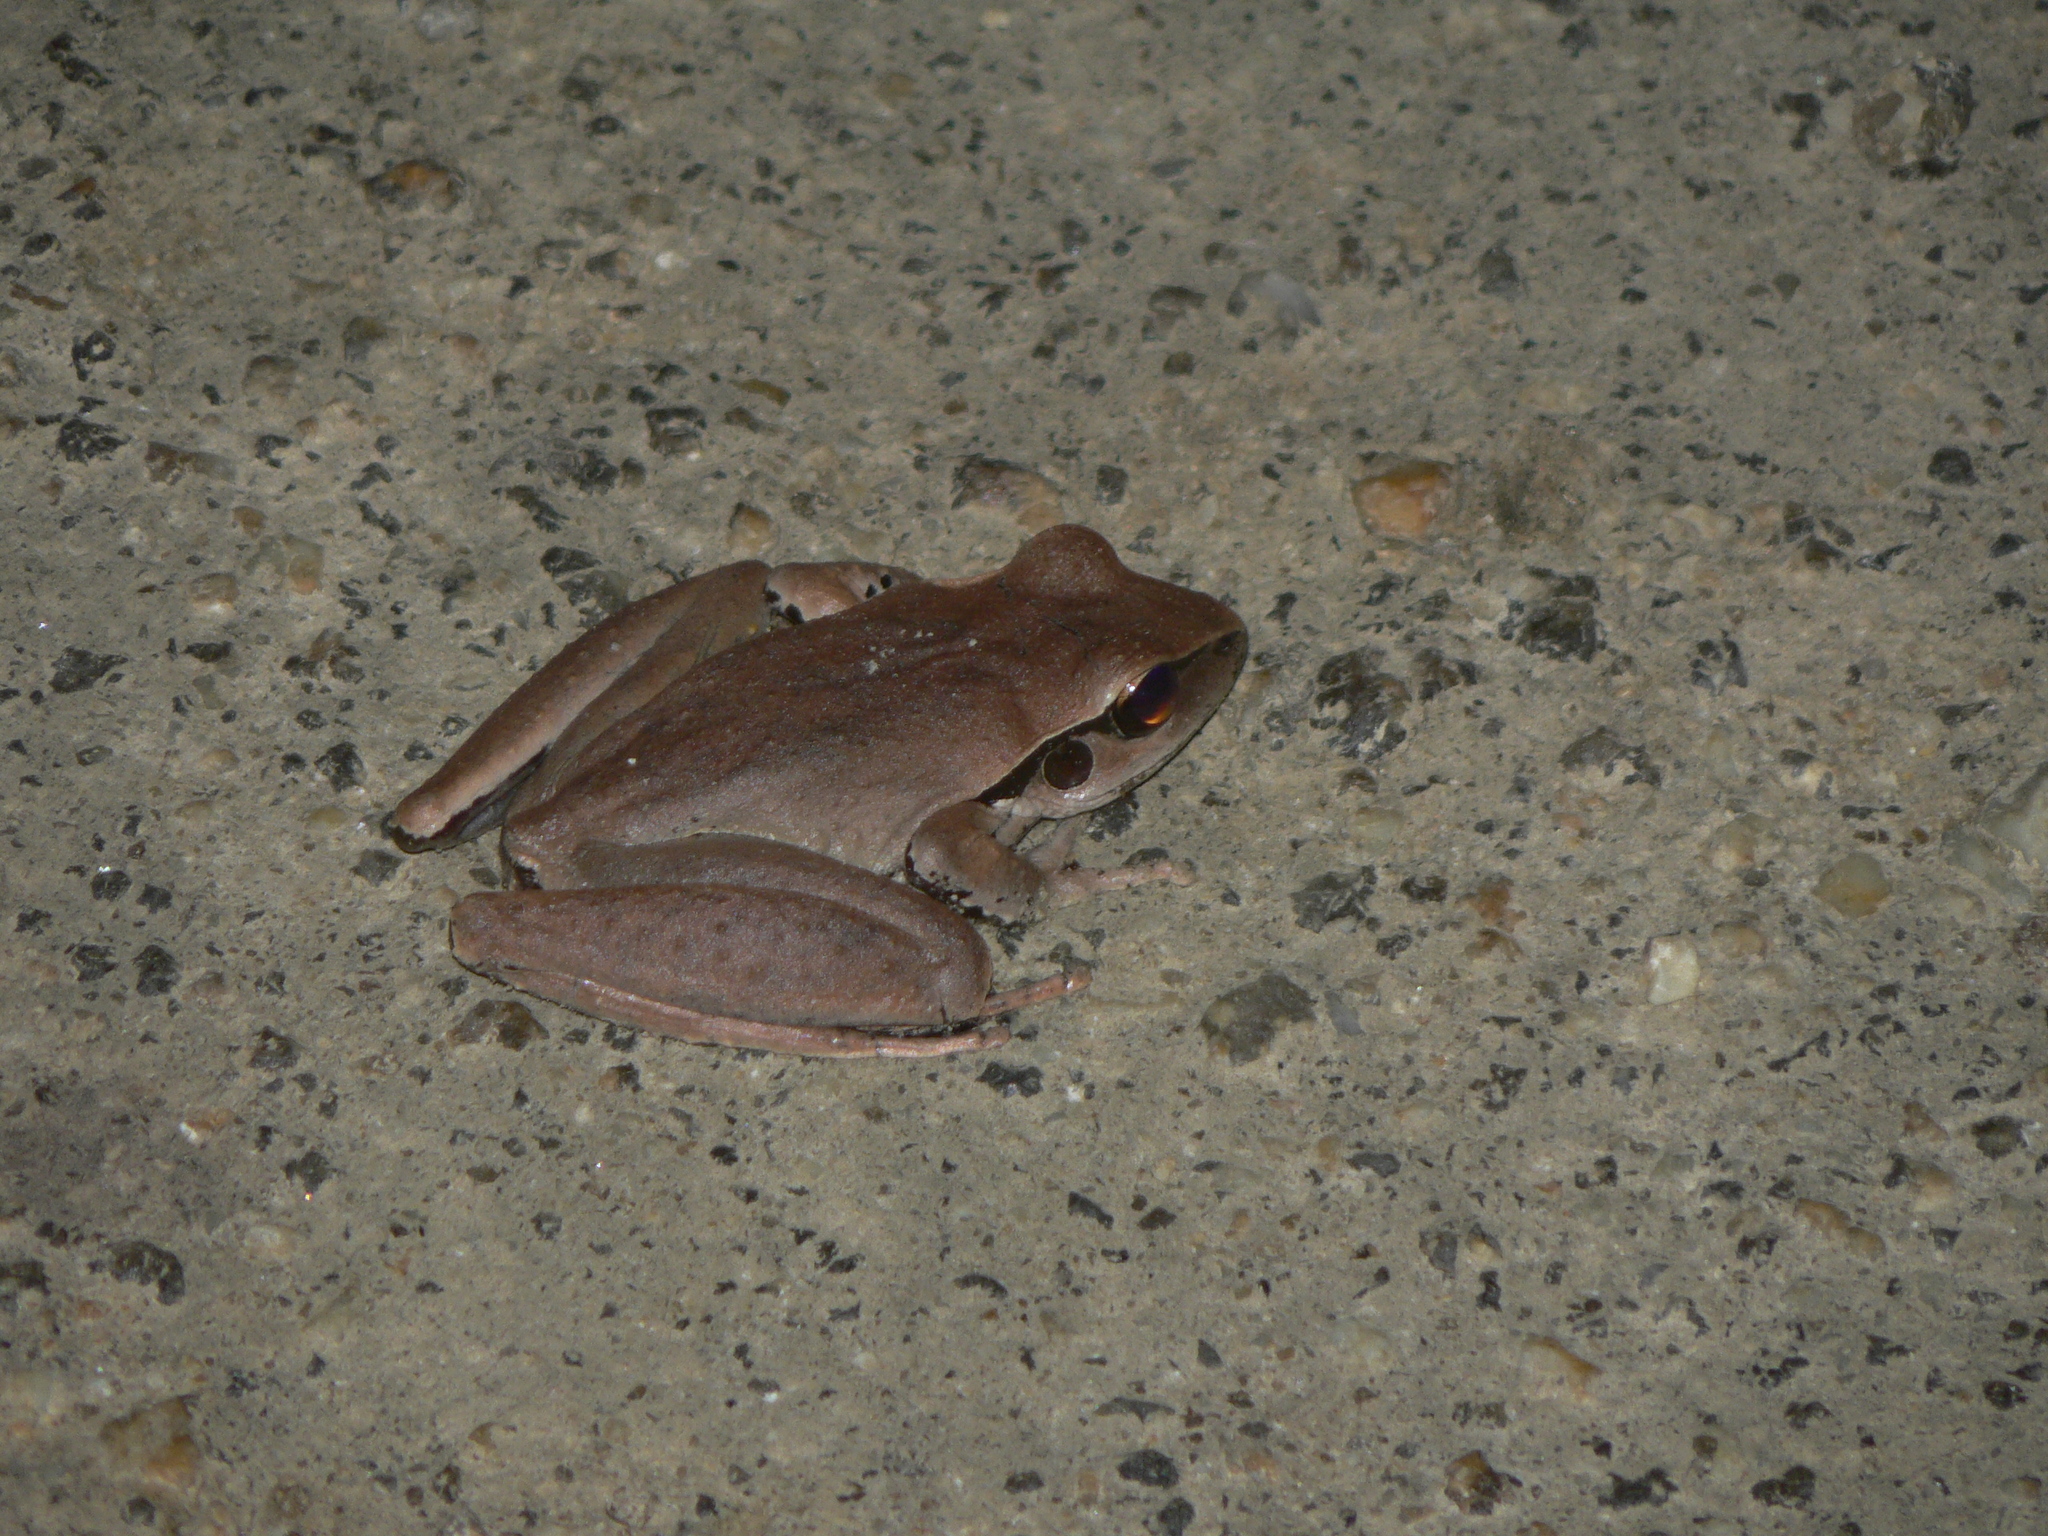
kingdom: Animalia
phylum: Chordata
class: Amphibia
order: Anura
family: Hylidae
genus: Ranoidea
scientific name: Ranoidea
